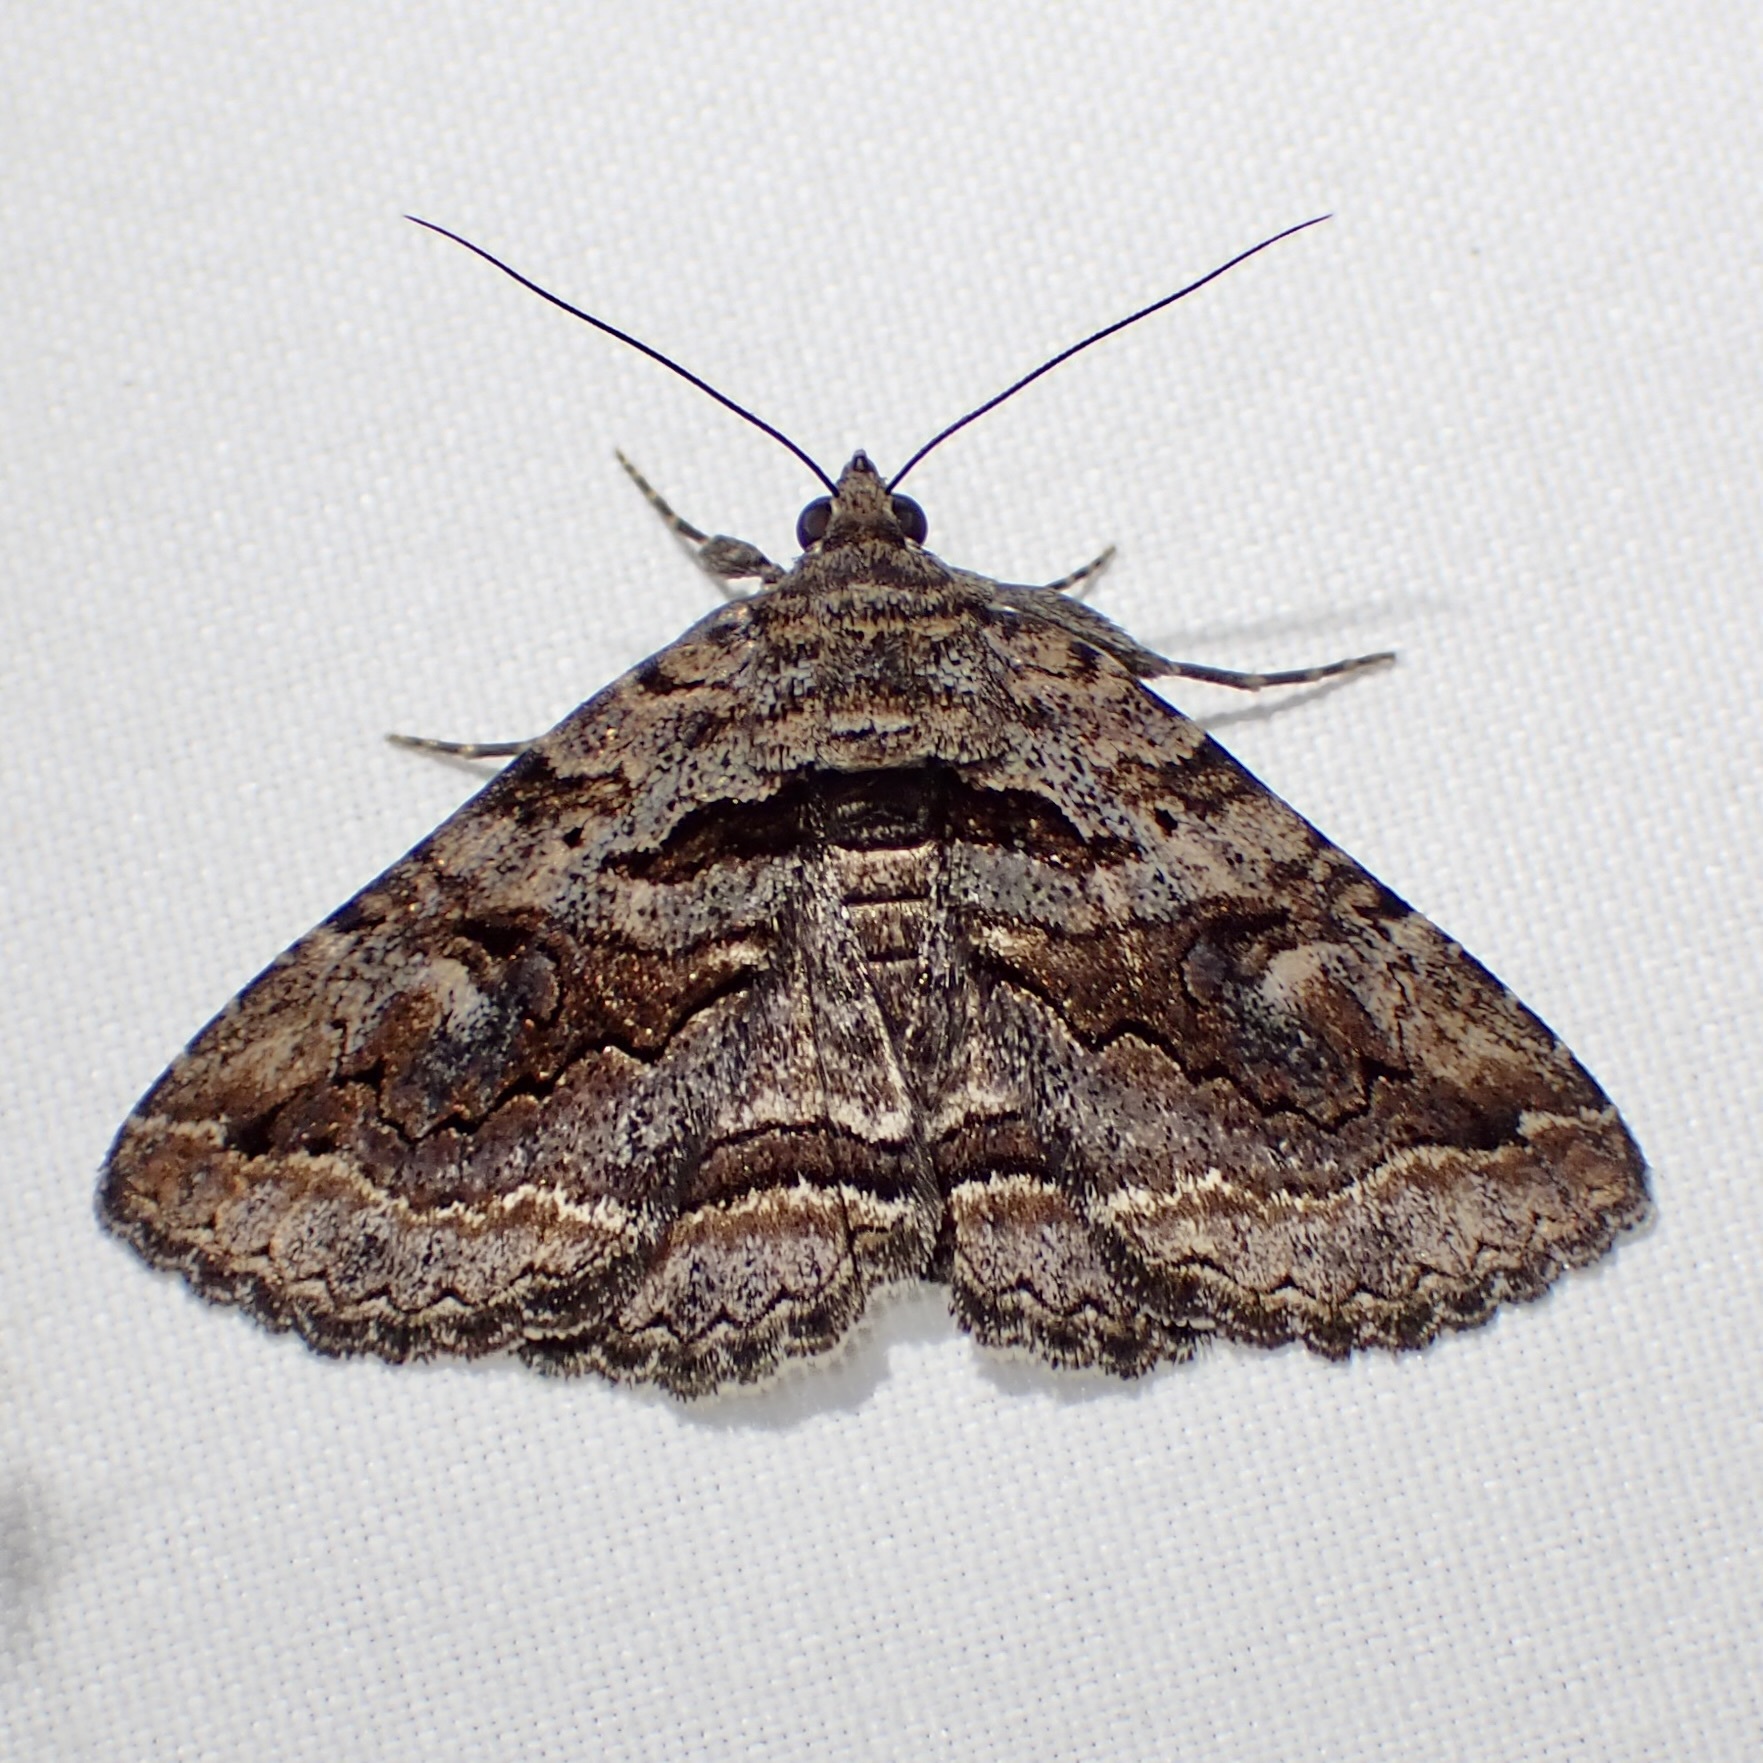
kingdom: Animalia
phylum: Arthropoda
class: Insecta
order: Lepidoptera
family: Erebidae
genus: Zaleops
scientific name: Zaleops umbrina
